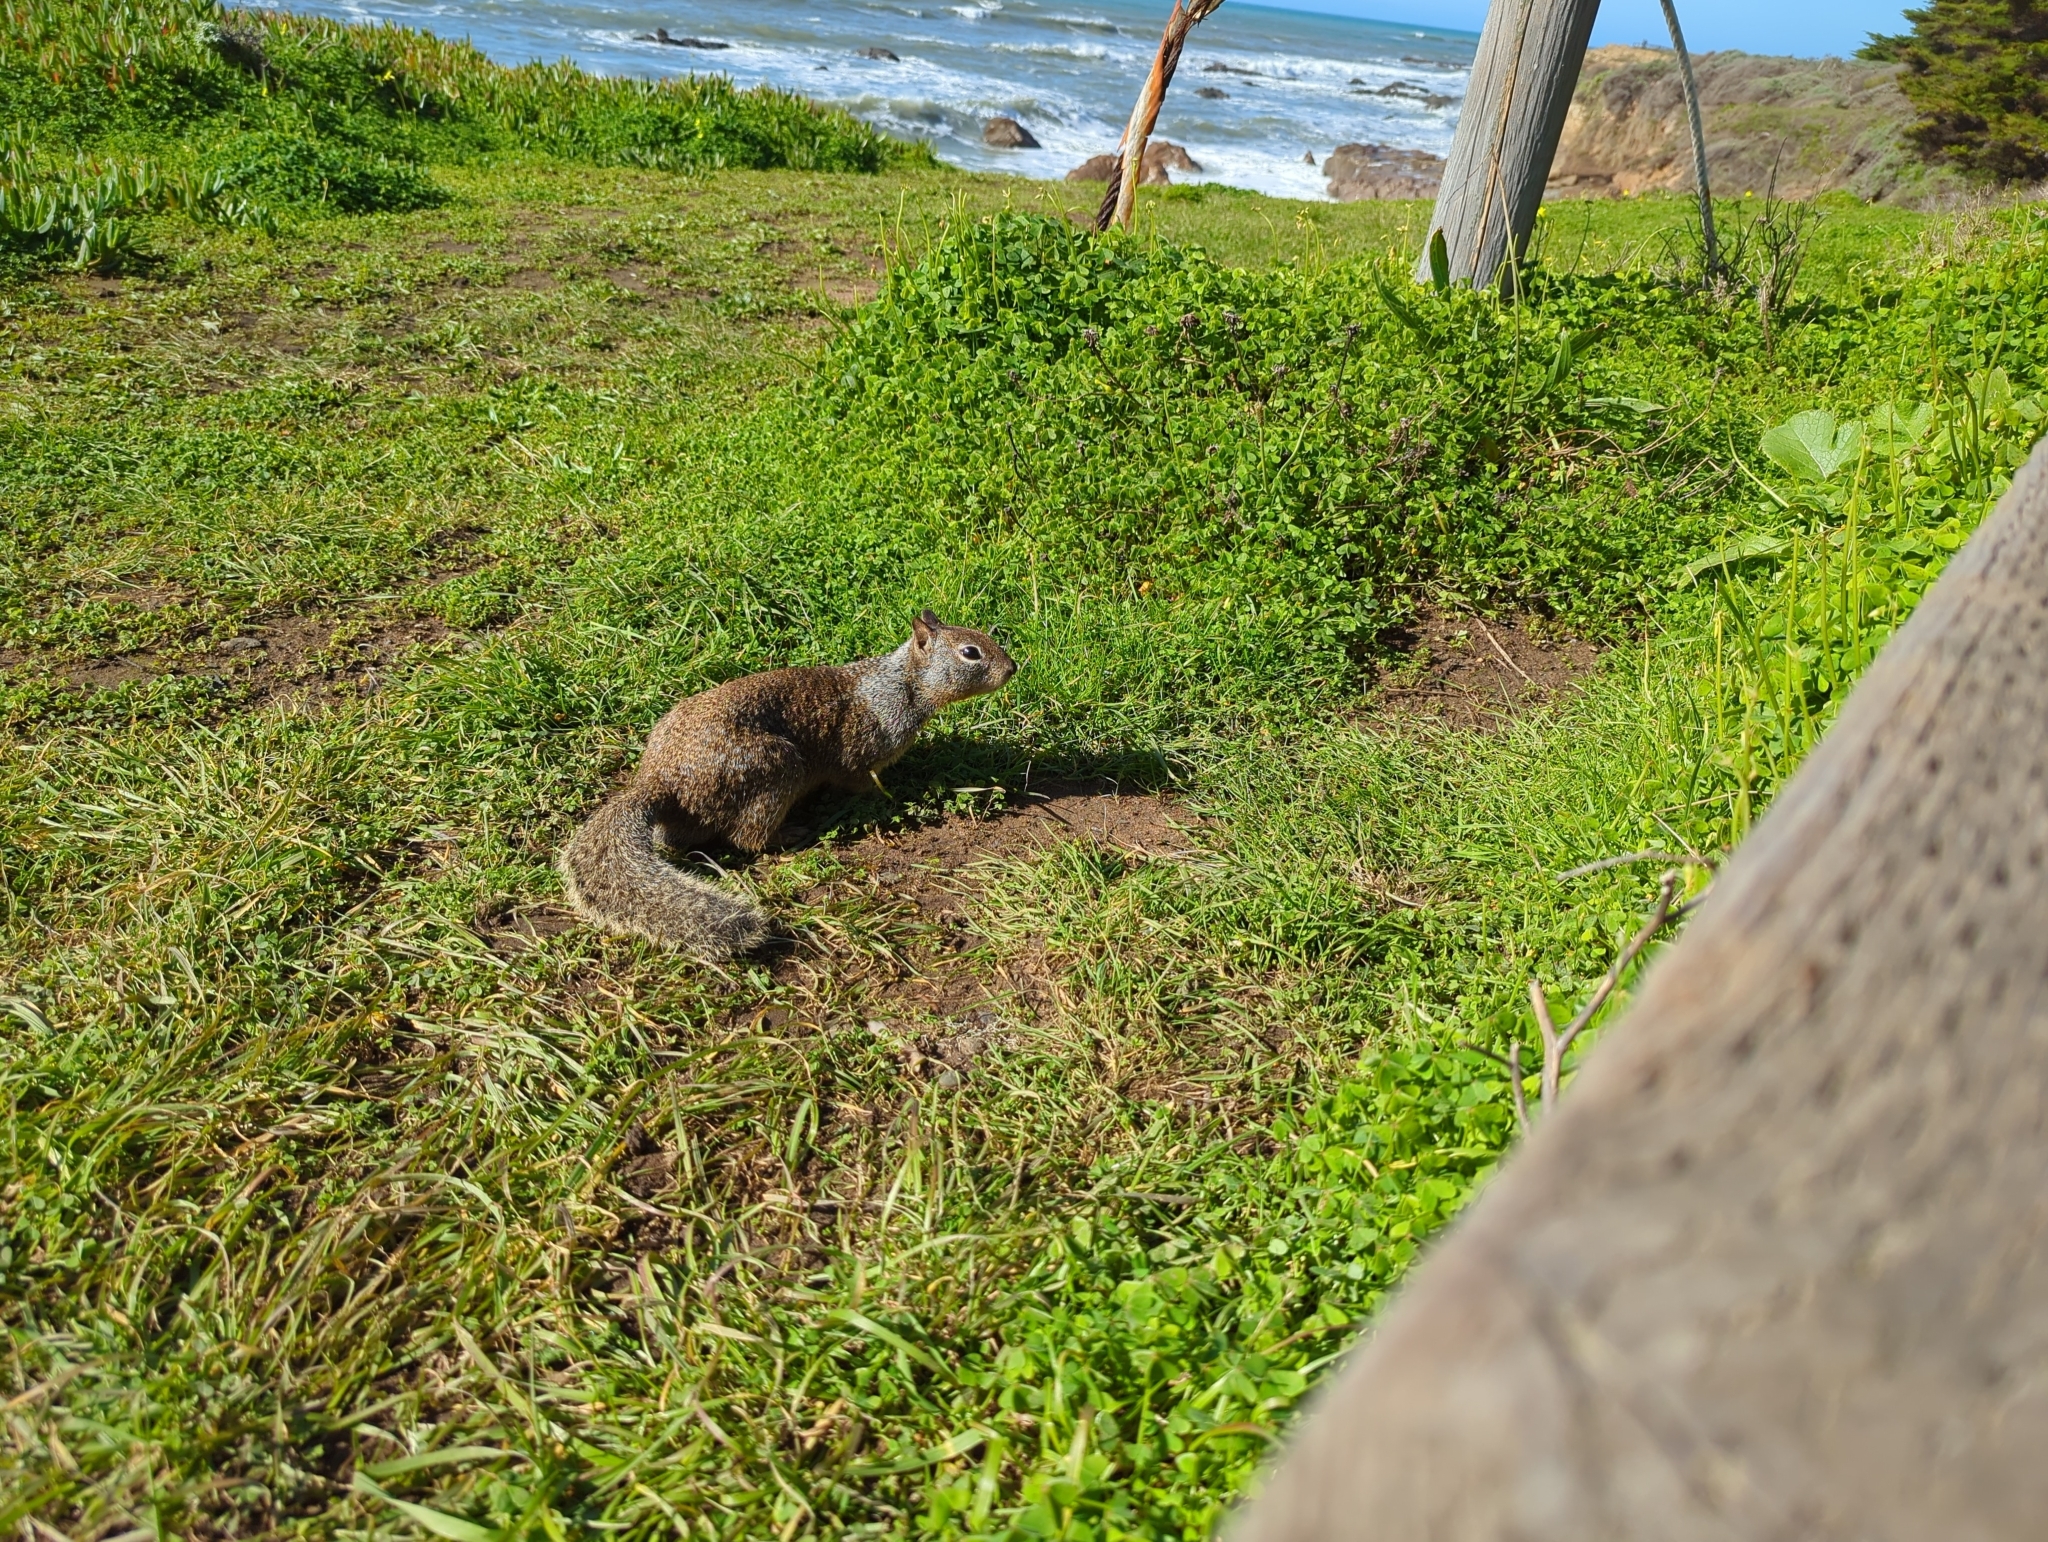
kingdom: Animalia
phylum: Chordata
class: Mammalia
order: Rodentia
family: Sciuridae
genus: Otospermophilus
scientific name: Otospermophilus beecheyi
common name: California ground squirrel
